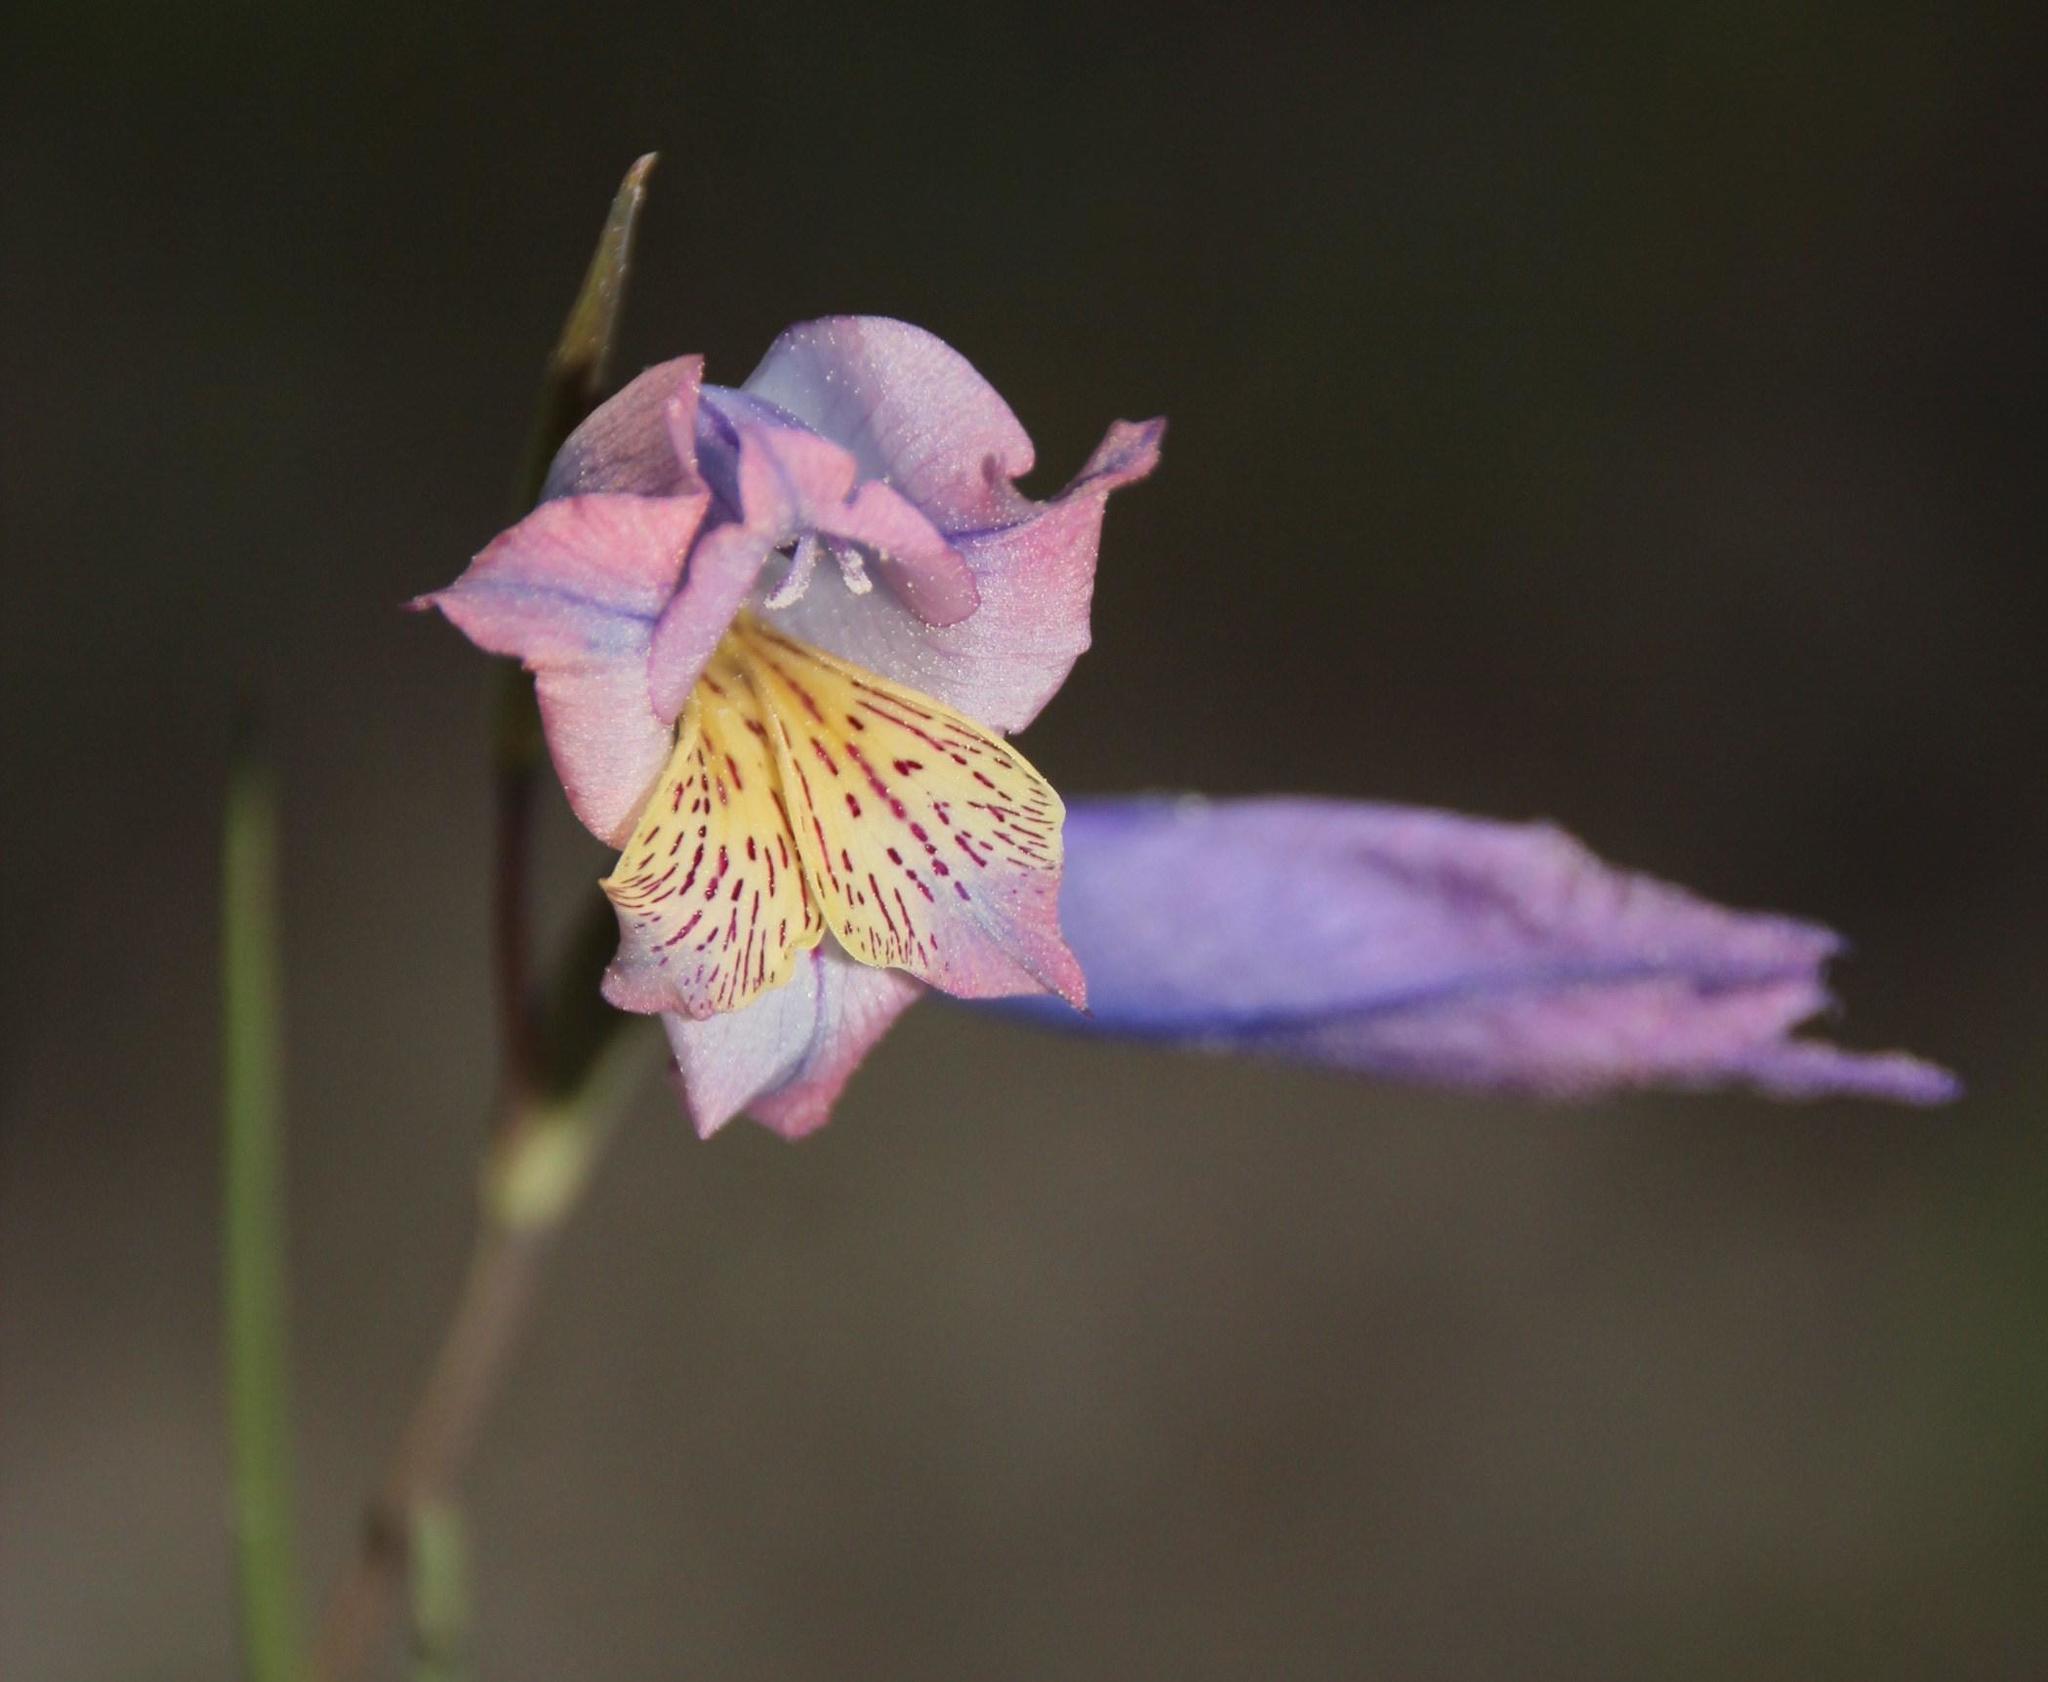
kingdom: Plantae
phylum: Tracheophyta
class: Liliopsida
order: Asparagales
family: Iridaceae
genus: Gladiolus
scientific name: Gladiolus gracilis
